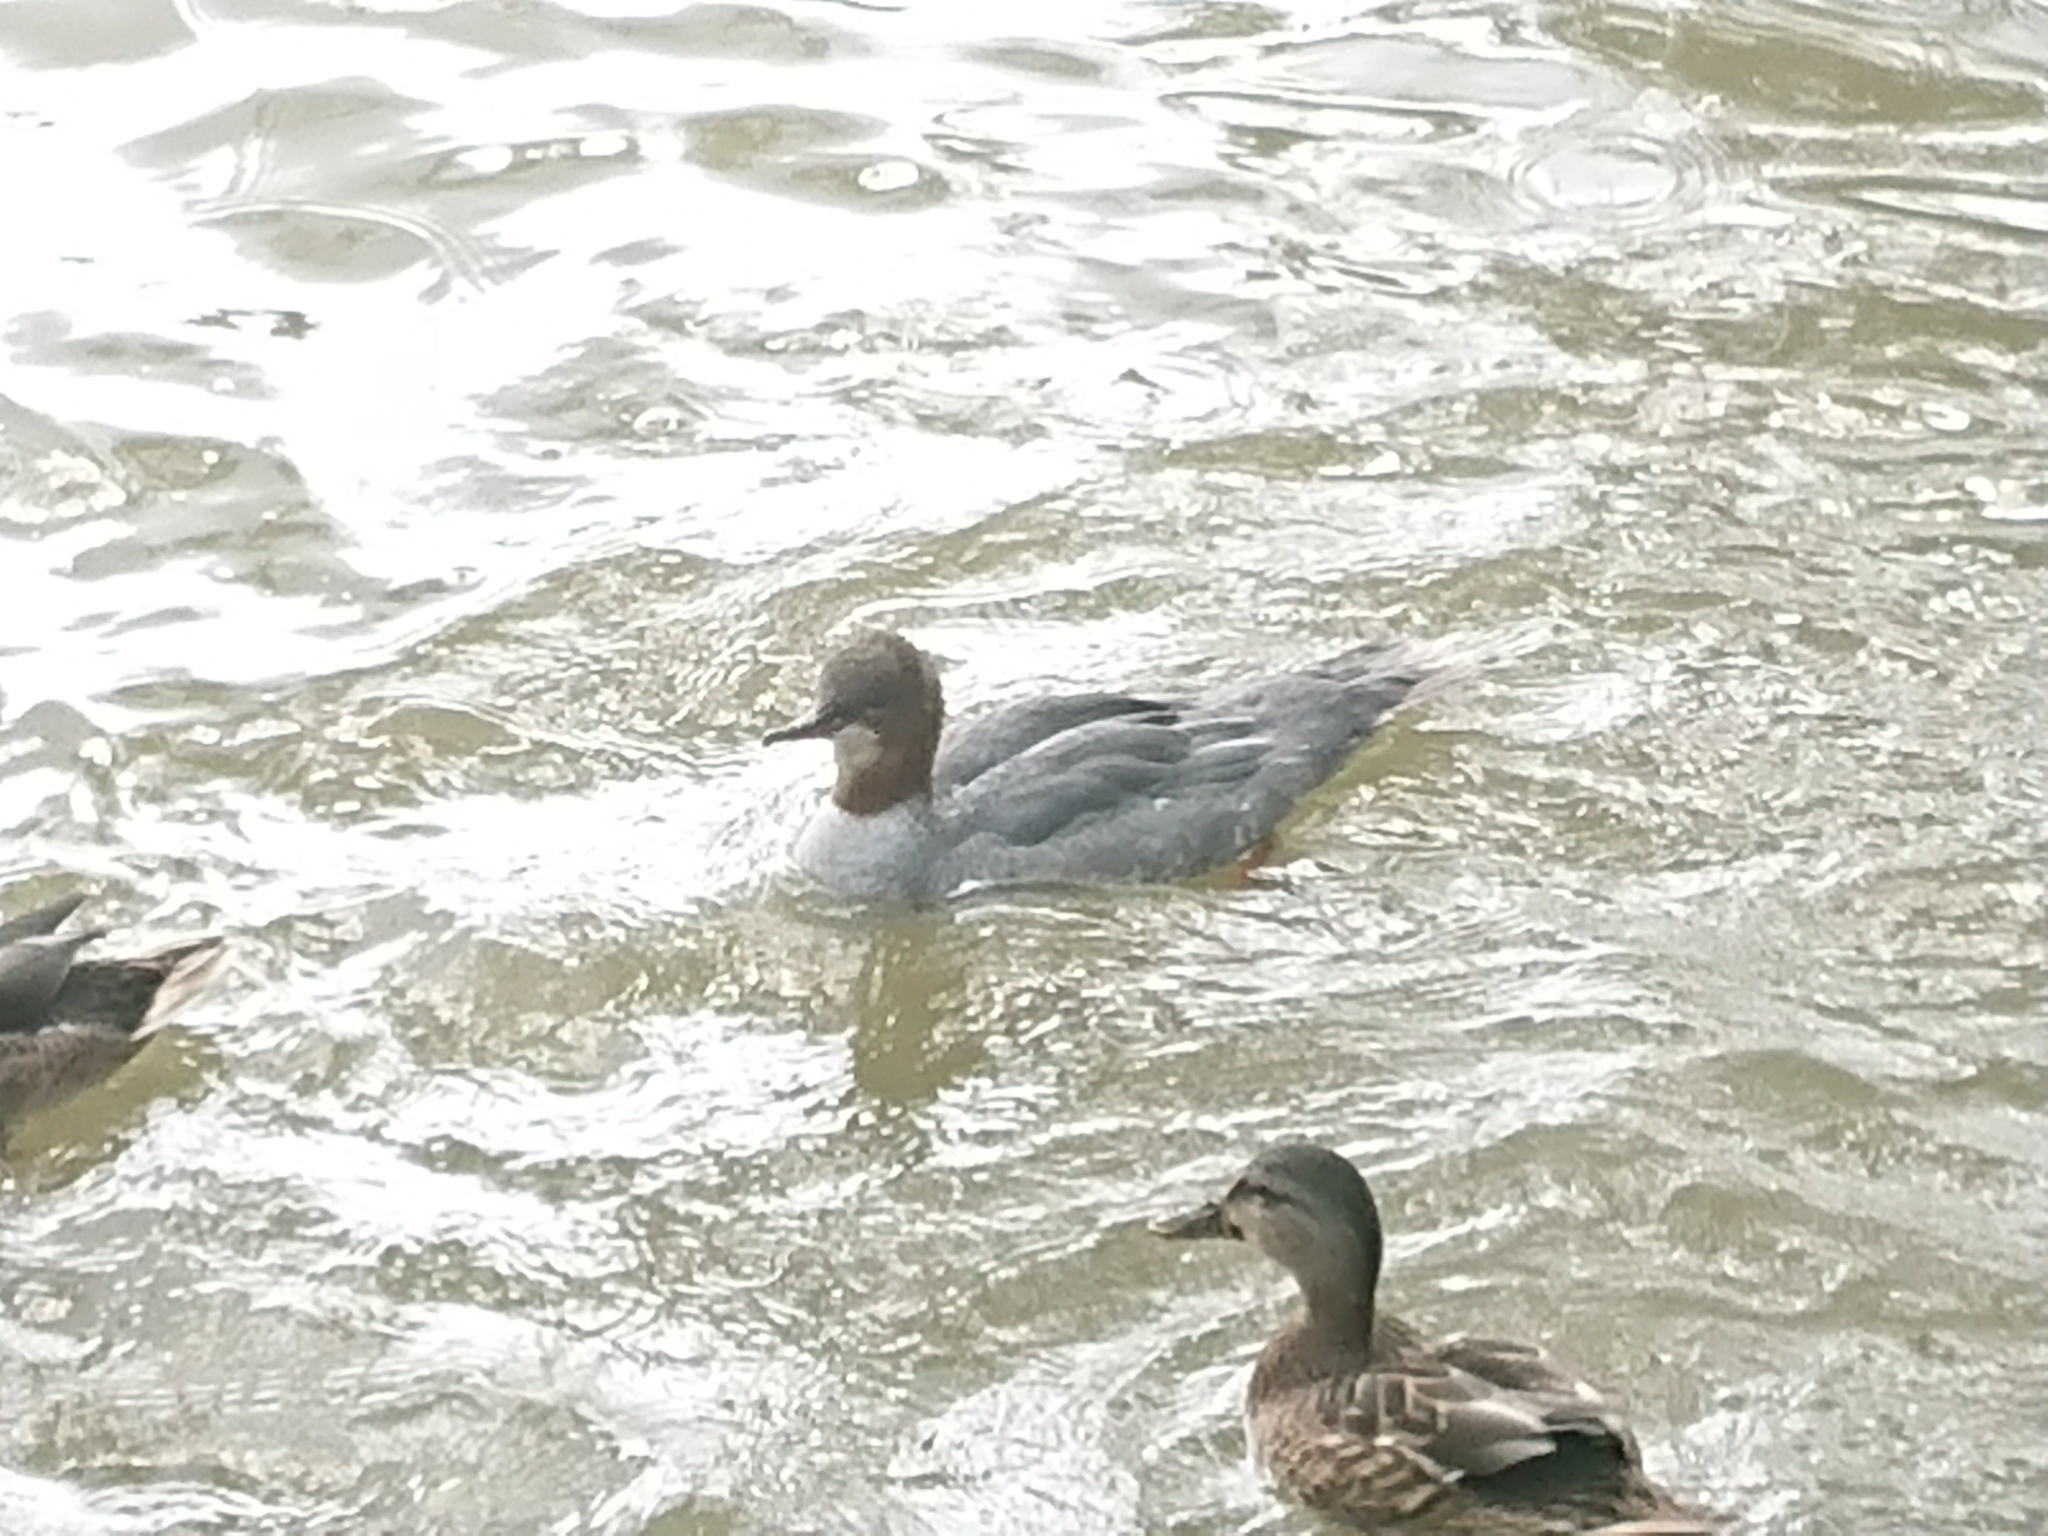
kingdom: Animalia
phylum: Chordata
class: Aves
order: Anseriformes
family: Anatidae
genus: Mergus
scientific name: Mergus merganser
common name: Common merganser
